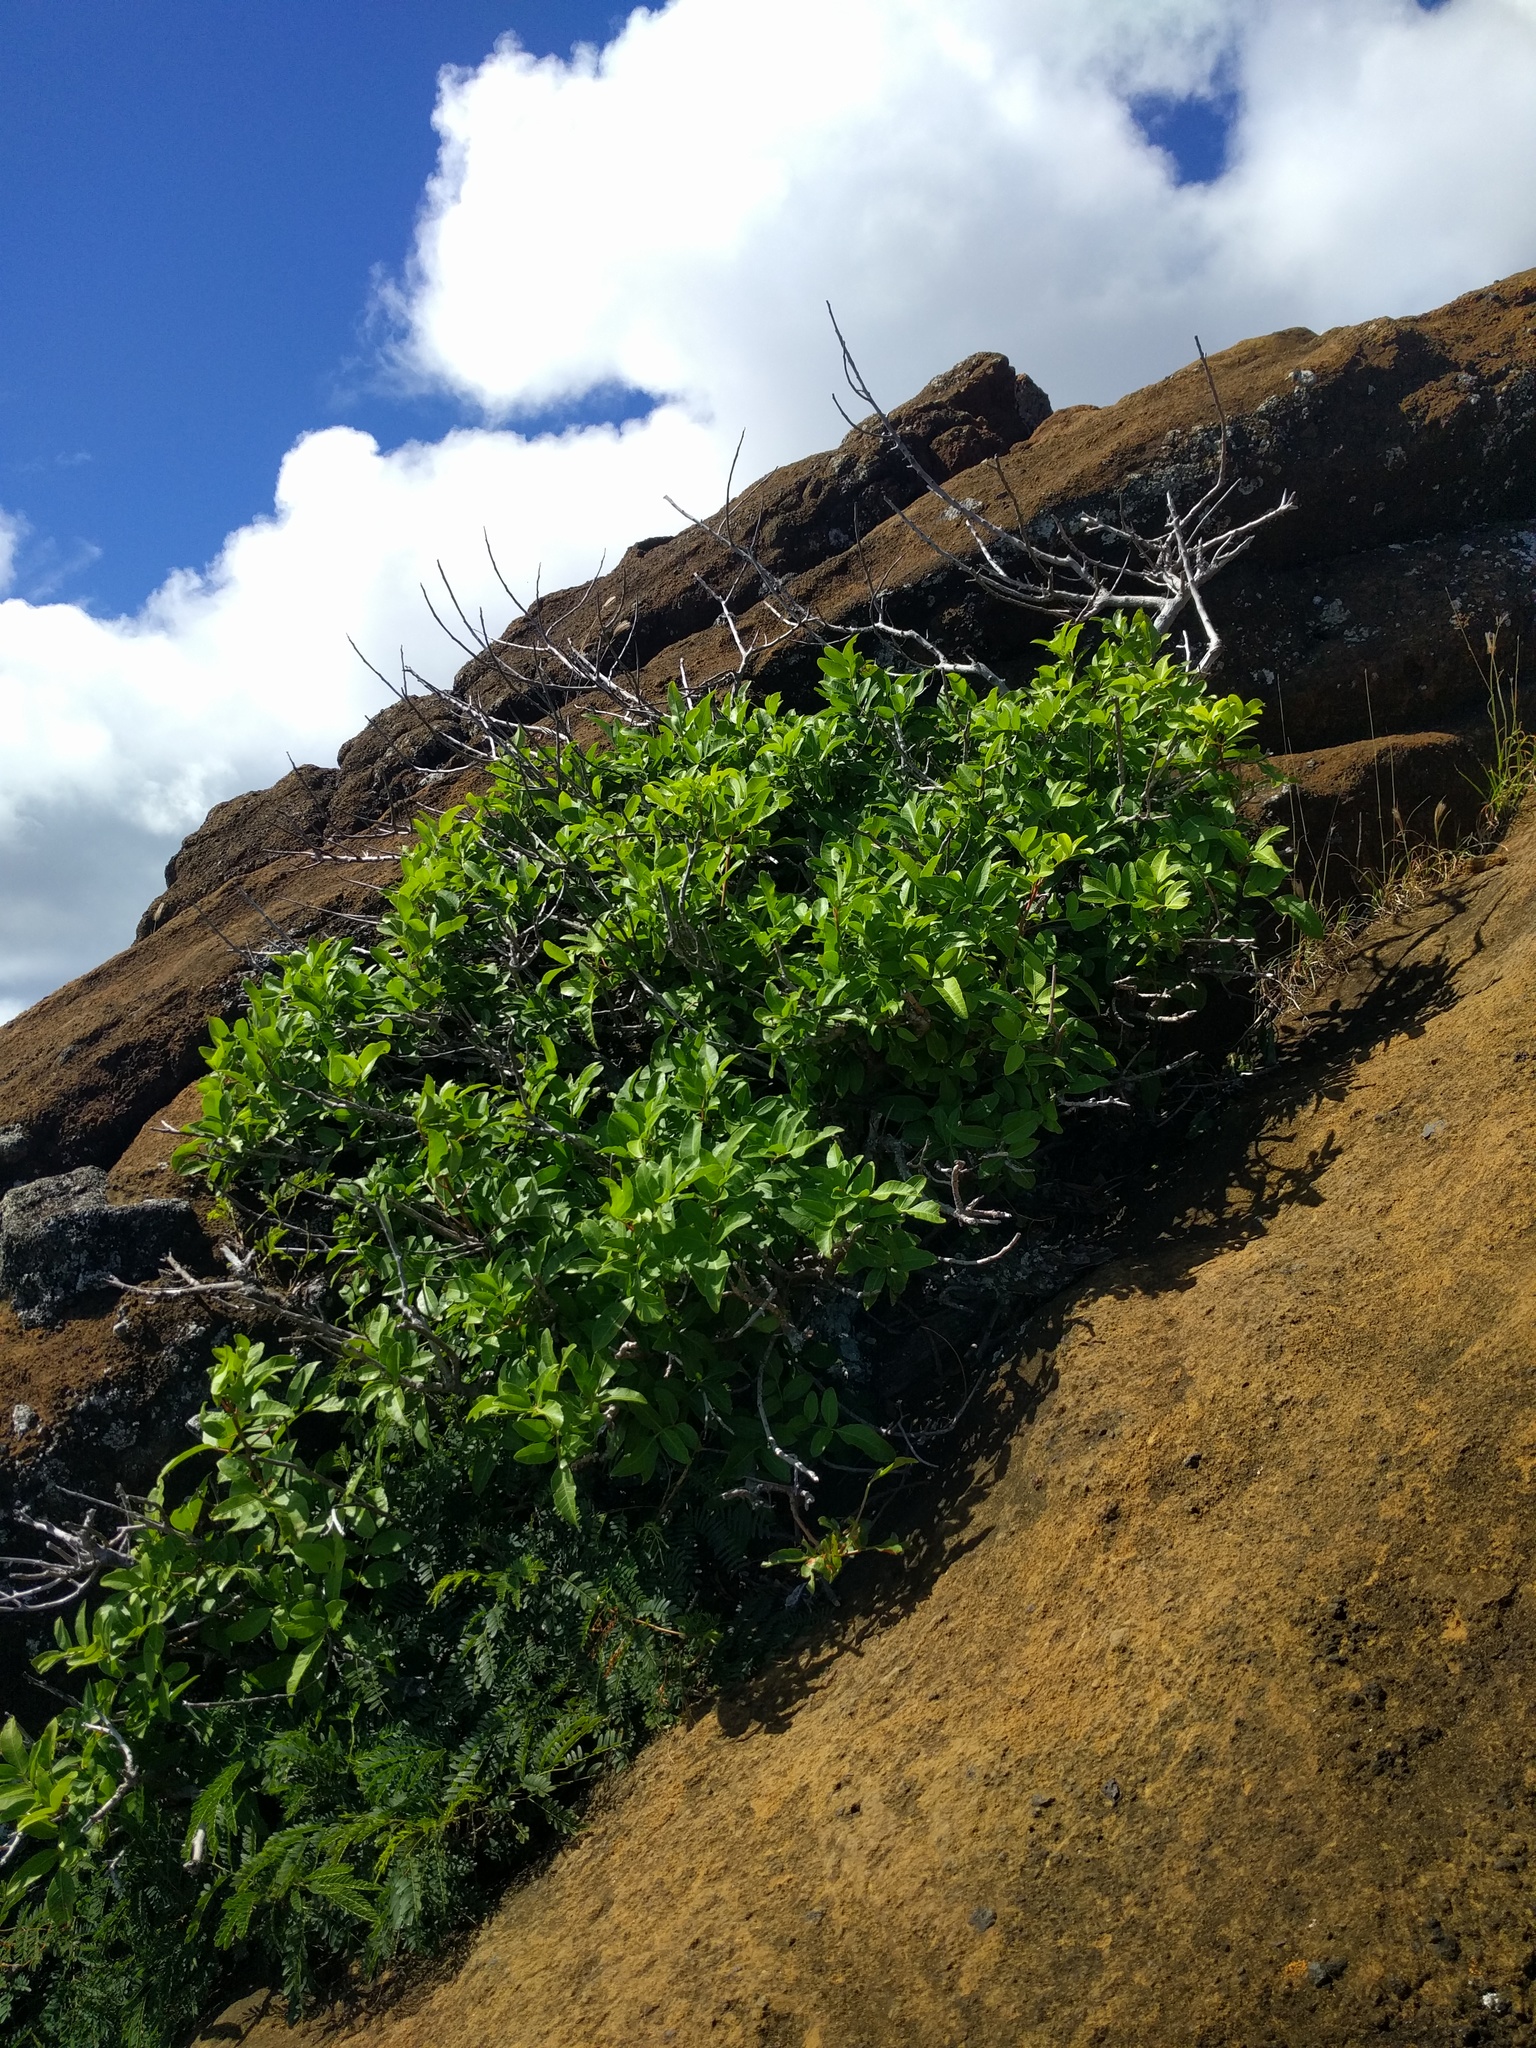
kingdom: Plantae
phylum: Tracheophyta
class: Magnoliopsida
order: Sapindales
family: Anacardiaceae
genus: Schinus
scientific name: Schinus terebinthifolia
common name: Brazilian peppertree
